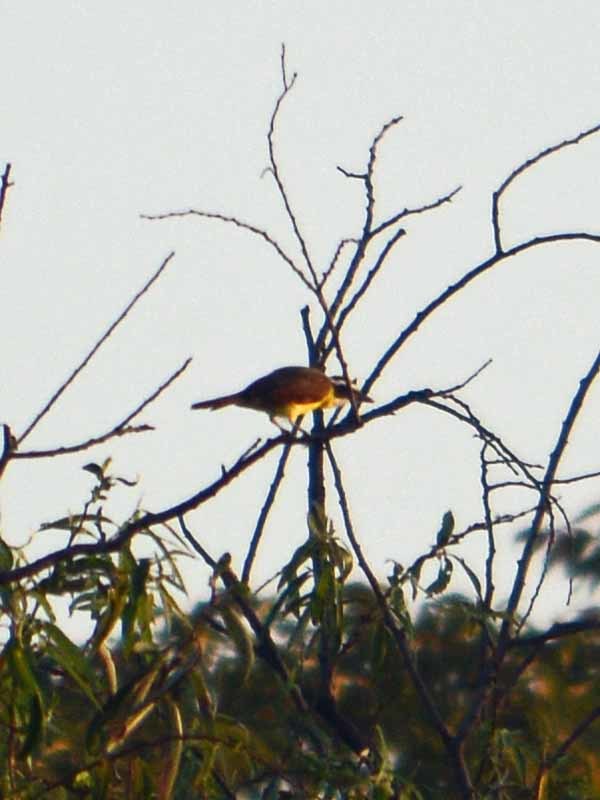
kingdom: Animalia
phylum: Chordata
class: Aves
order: Passeriformes
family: Tyrannidae
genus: Pitangus
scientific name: Pitangus sulphuratus
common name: Great kiskadee
